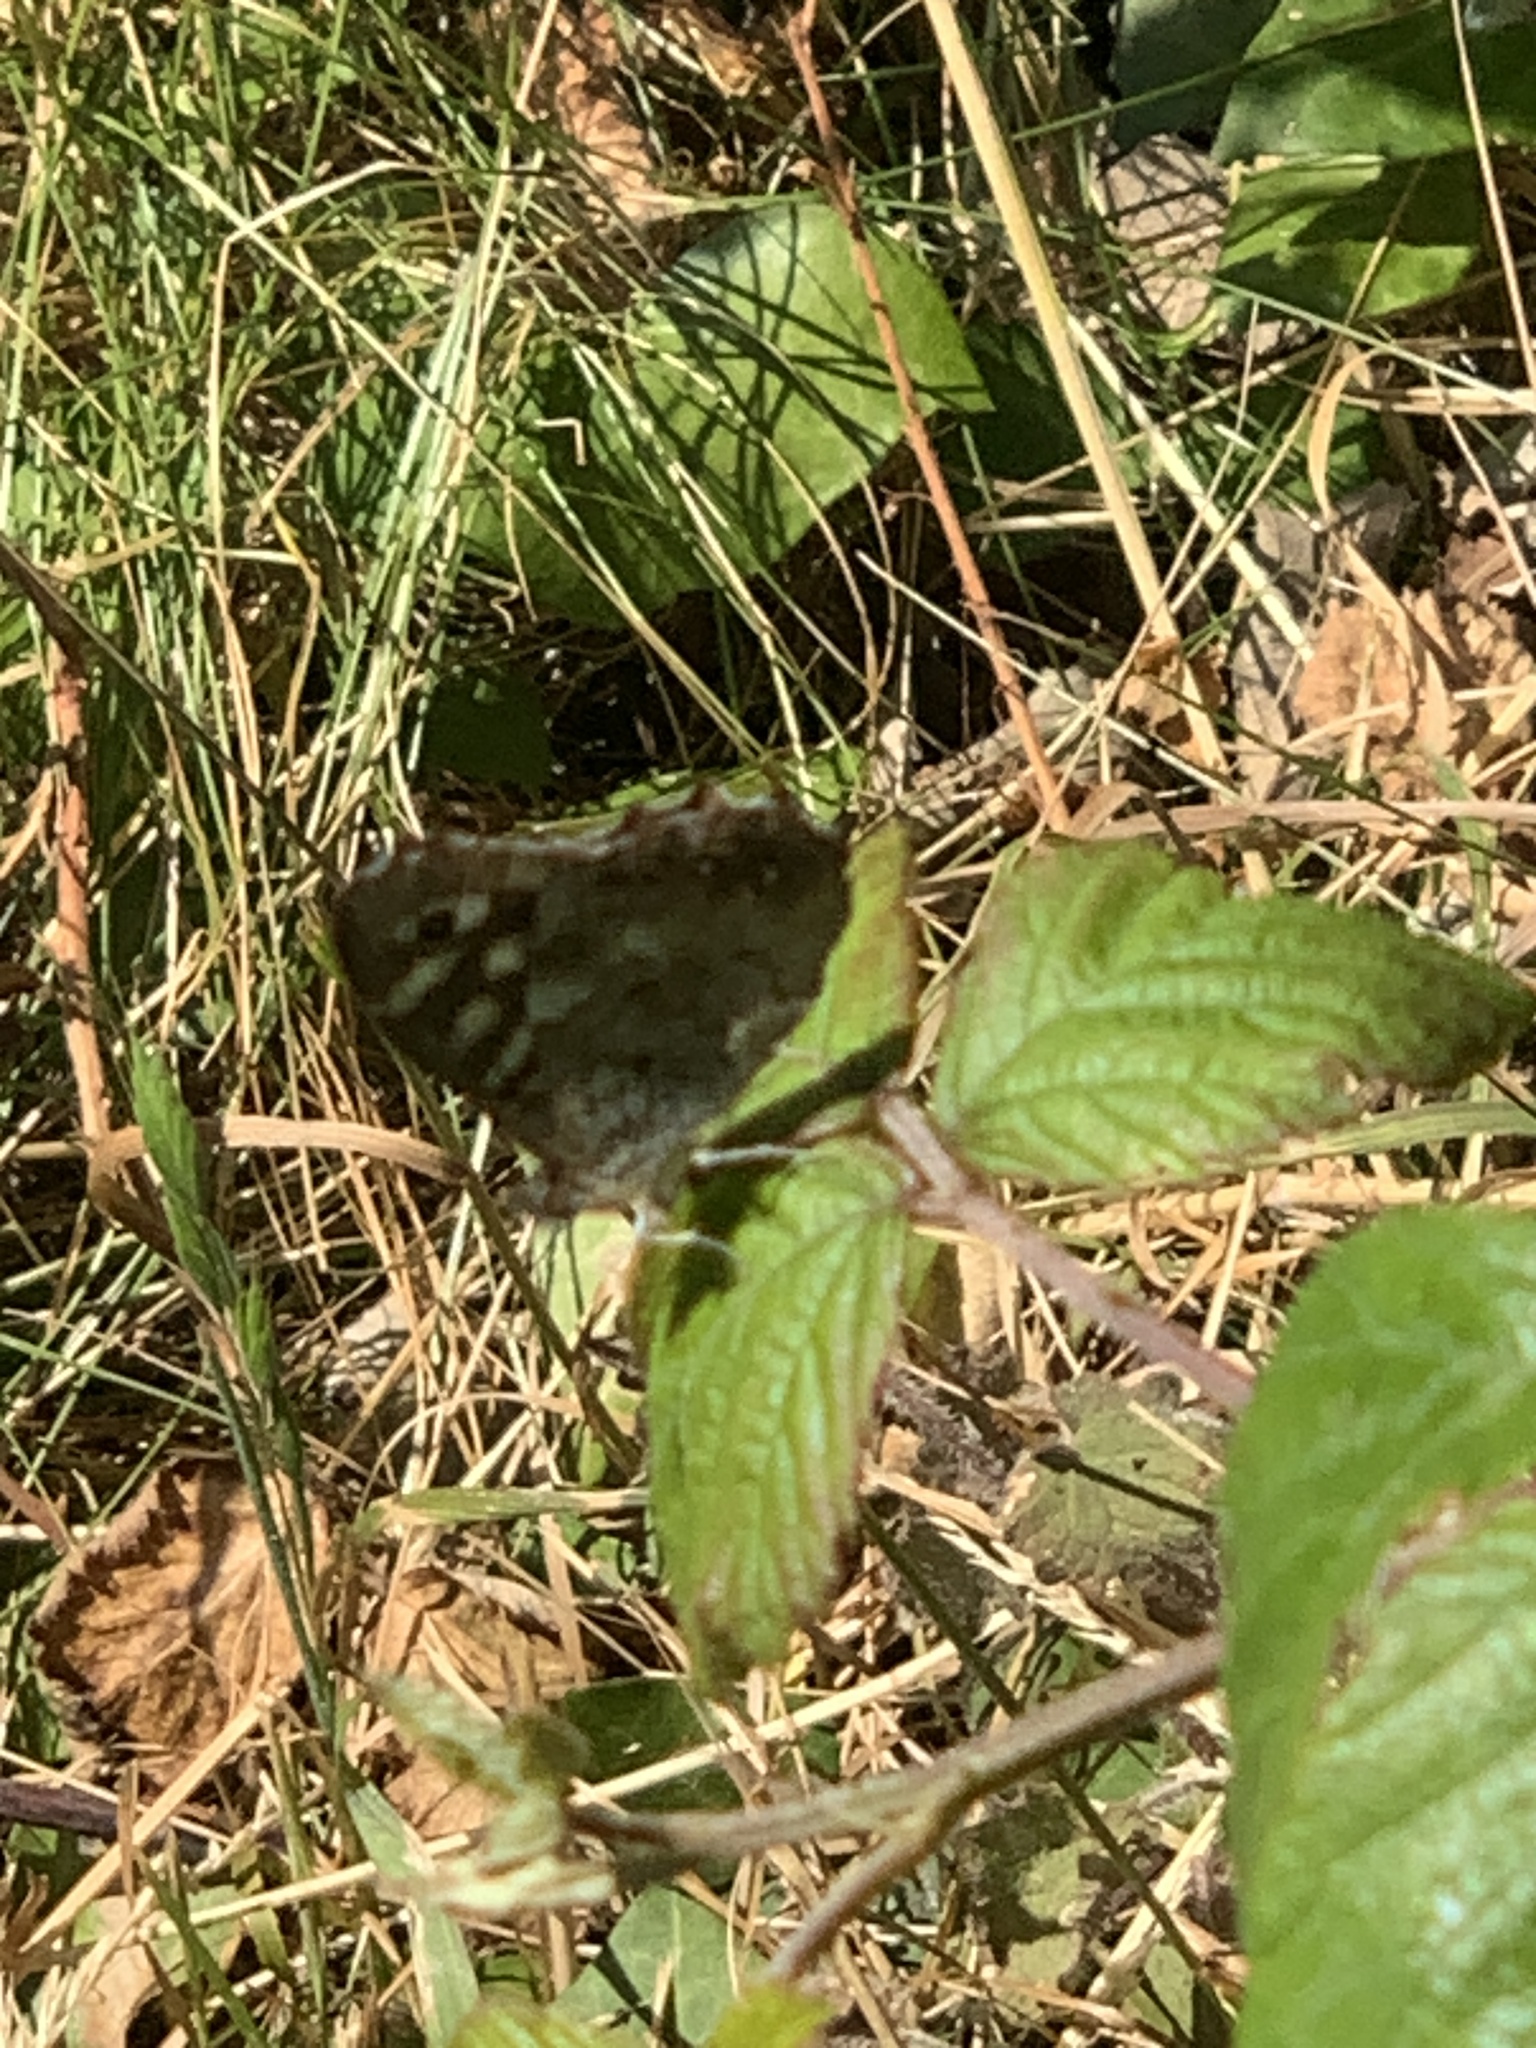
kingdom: Animalia
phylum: Arthropoda
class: Insecta
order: Lepidoptera
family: Nymphalidae
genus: Pararge
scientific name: Pararge aegeria
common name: Speckled wood
